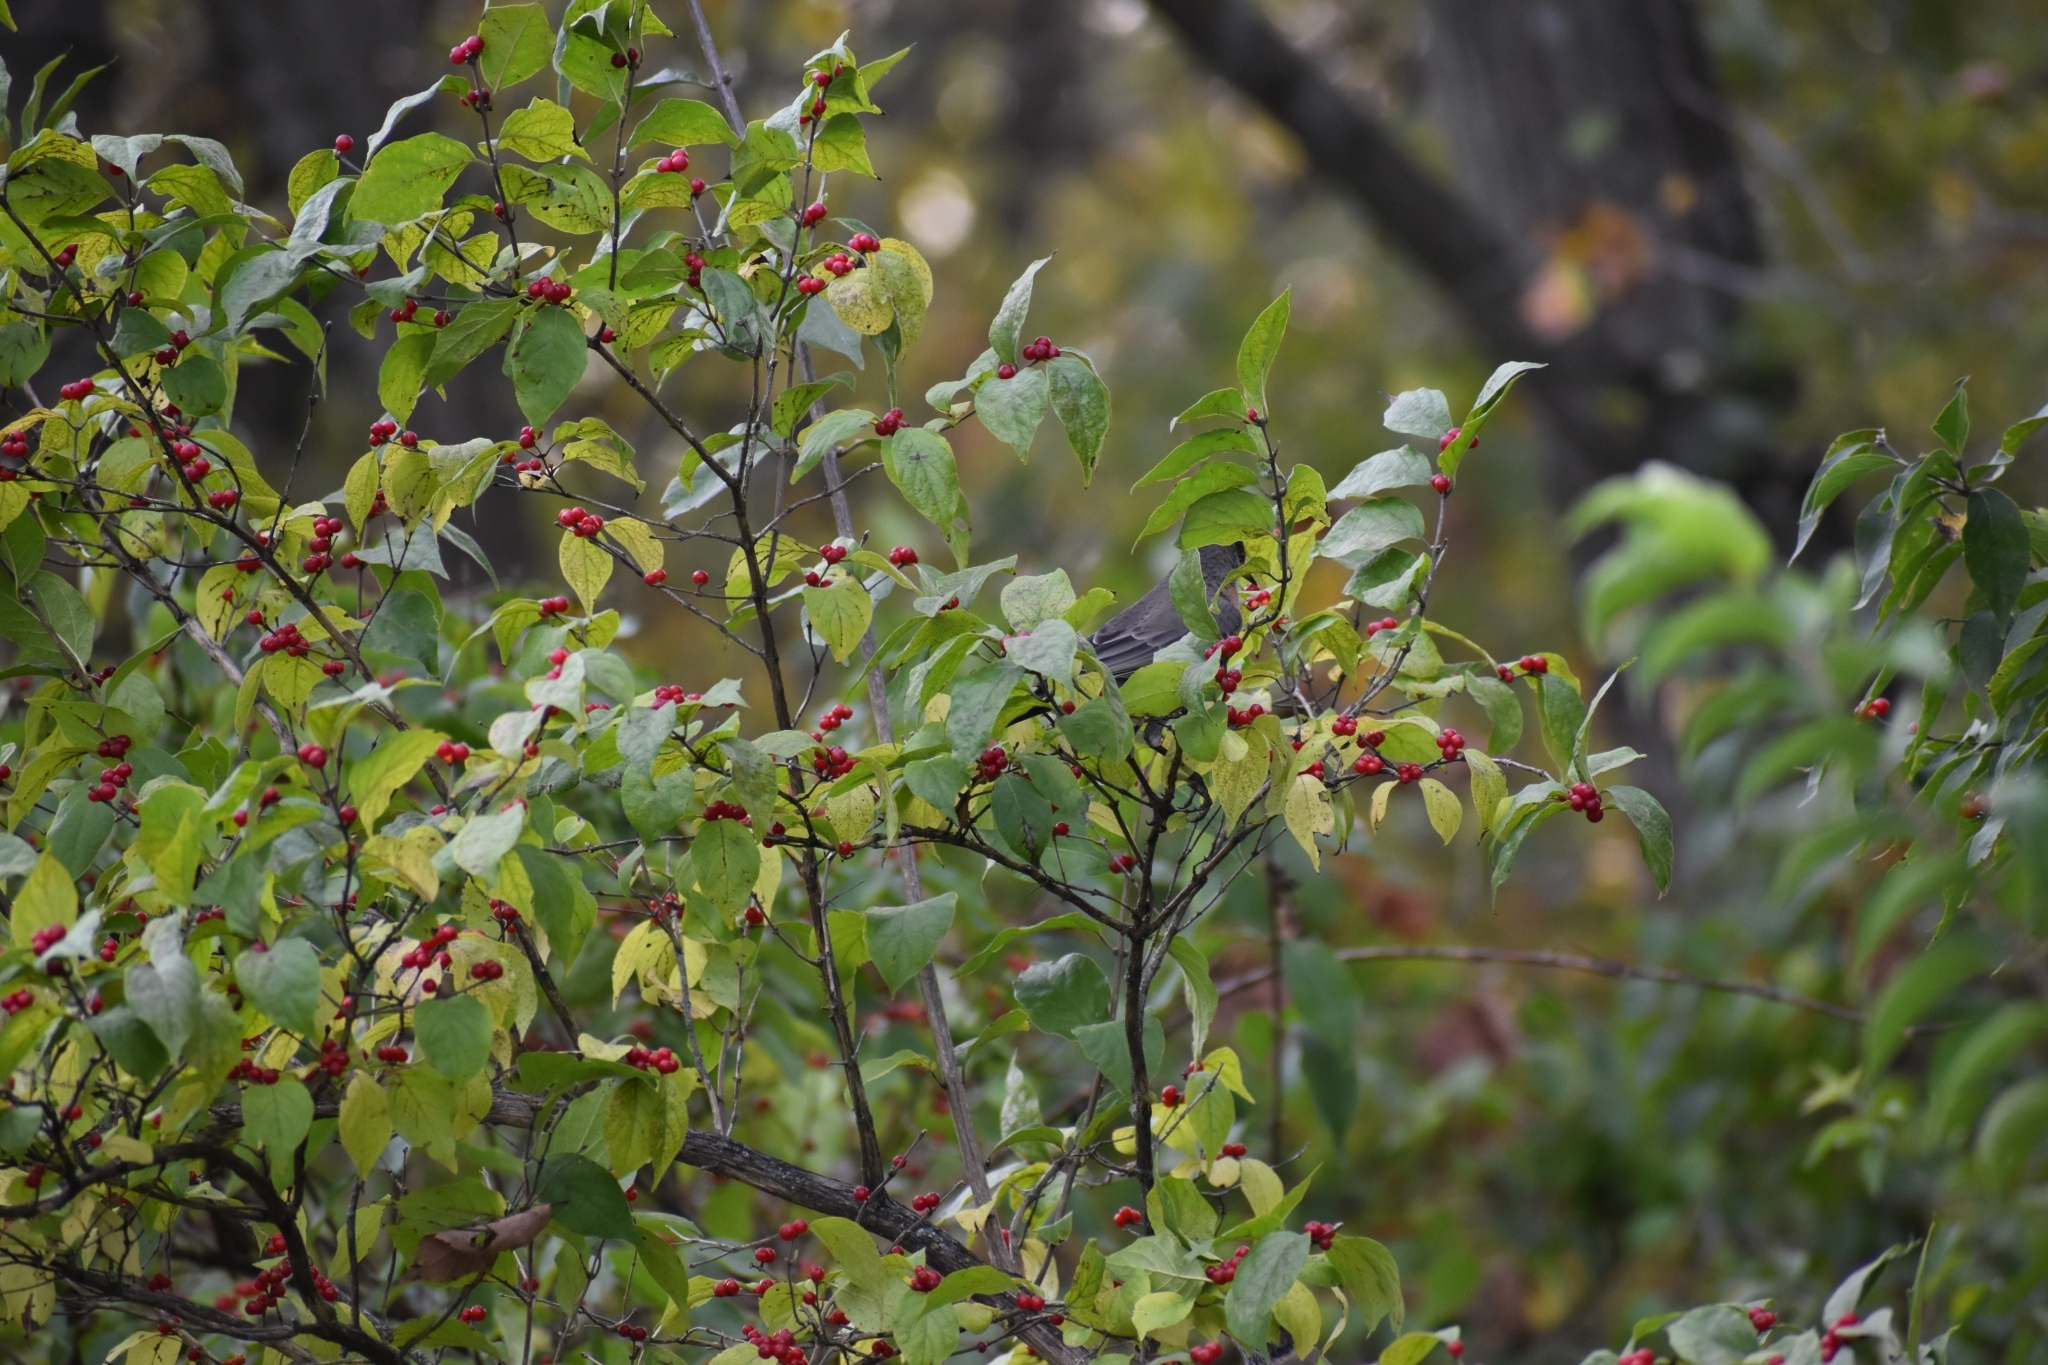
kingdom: Plantae
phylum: Tracheophyta
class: Magnoliopsida
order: Dipsacales
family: Caprifoliaceae
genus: Lonicera
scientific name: Lonicera maackii
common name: Amur honeysuckle
